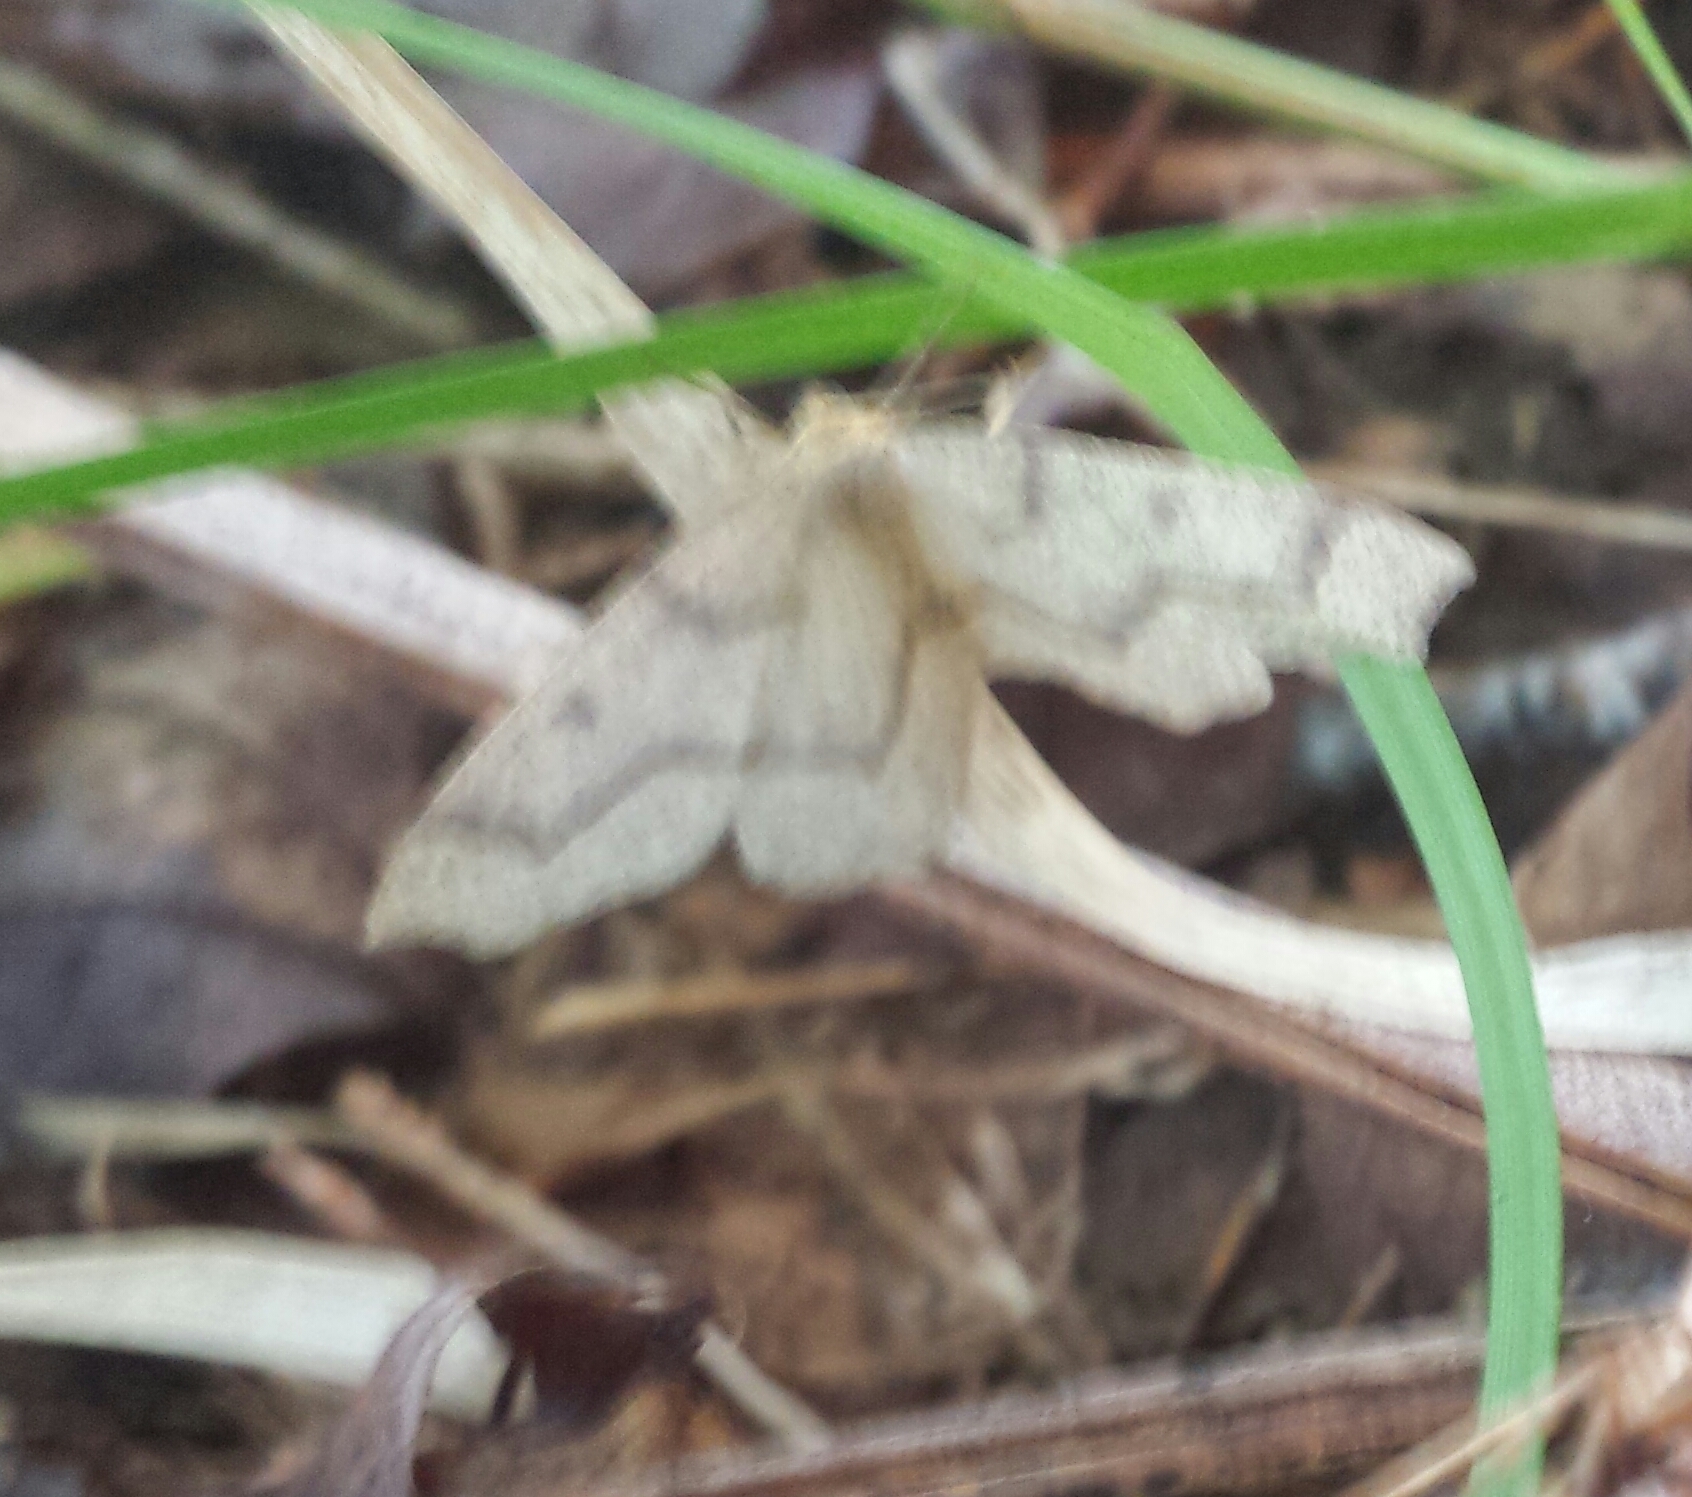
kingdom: Animalia
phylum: Arthropoda
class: Insecta
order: Lepidoptera
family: Geometridae
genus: Lambdina
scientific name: Lambdina fiscellaria
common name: Hemlock looper
